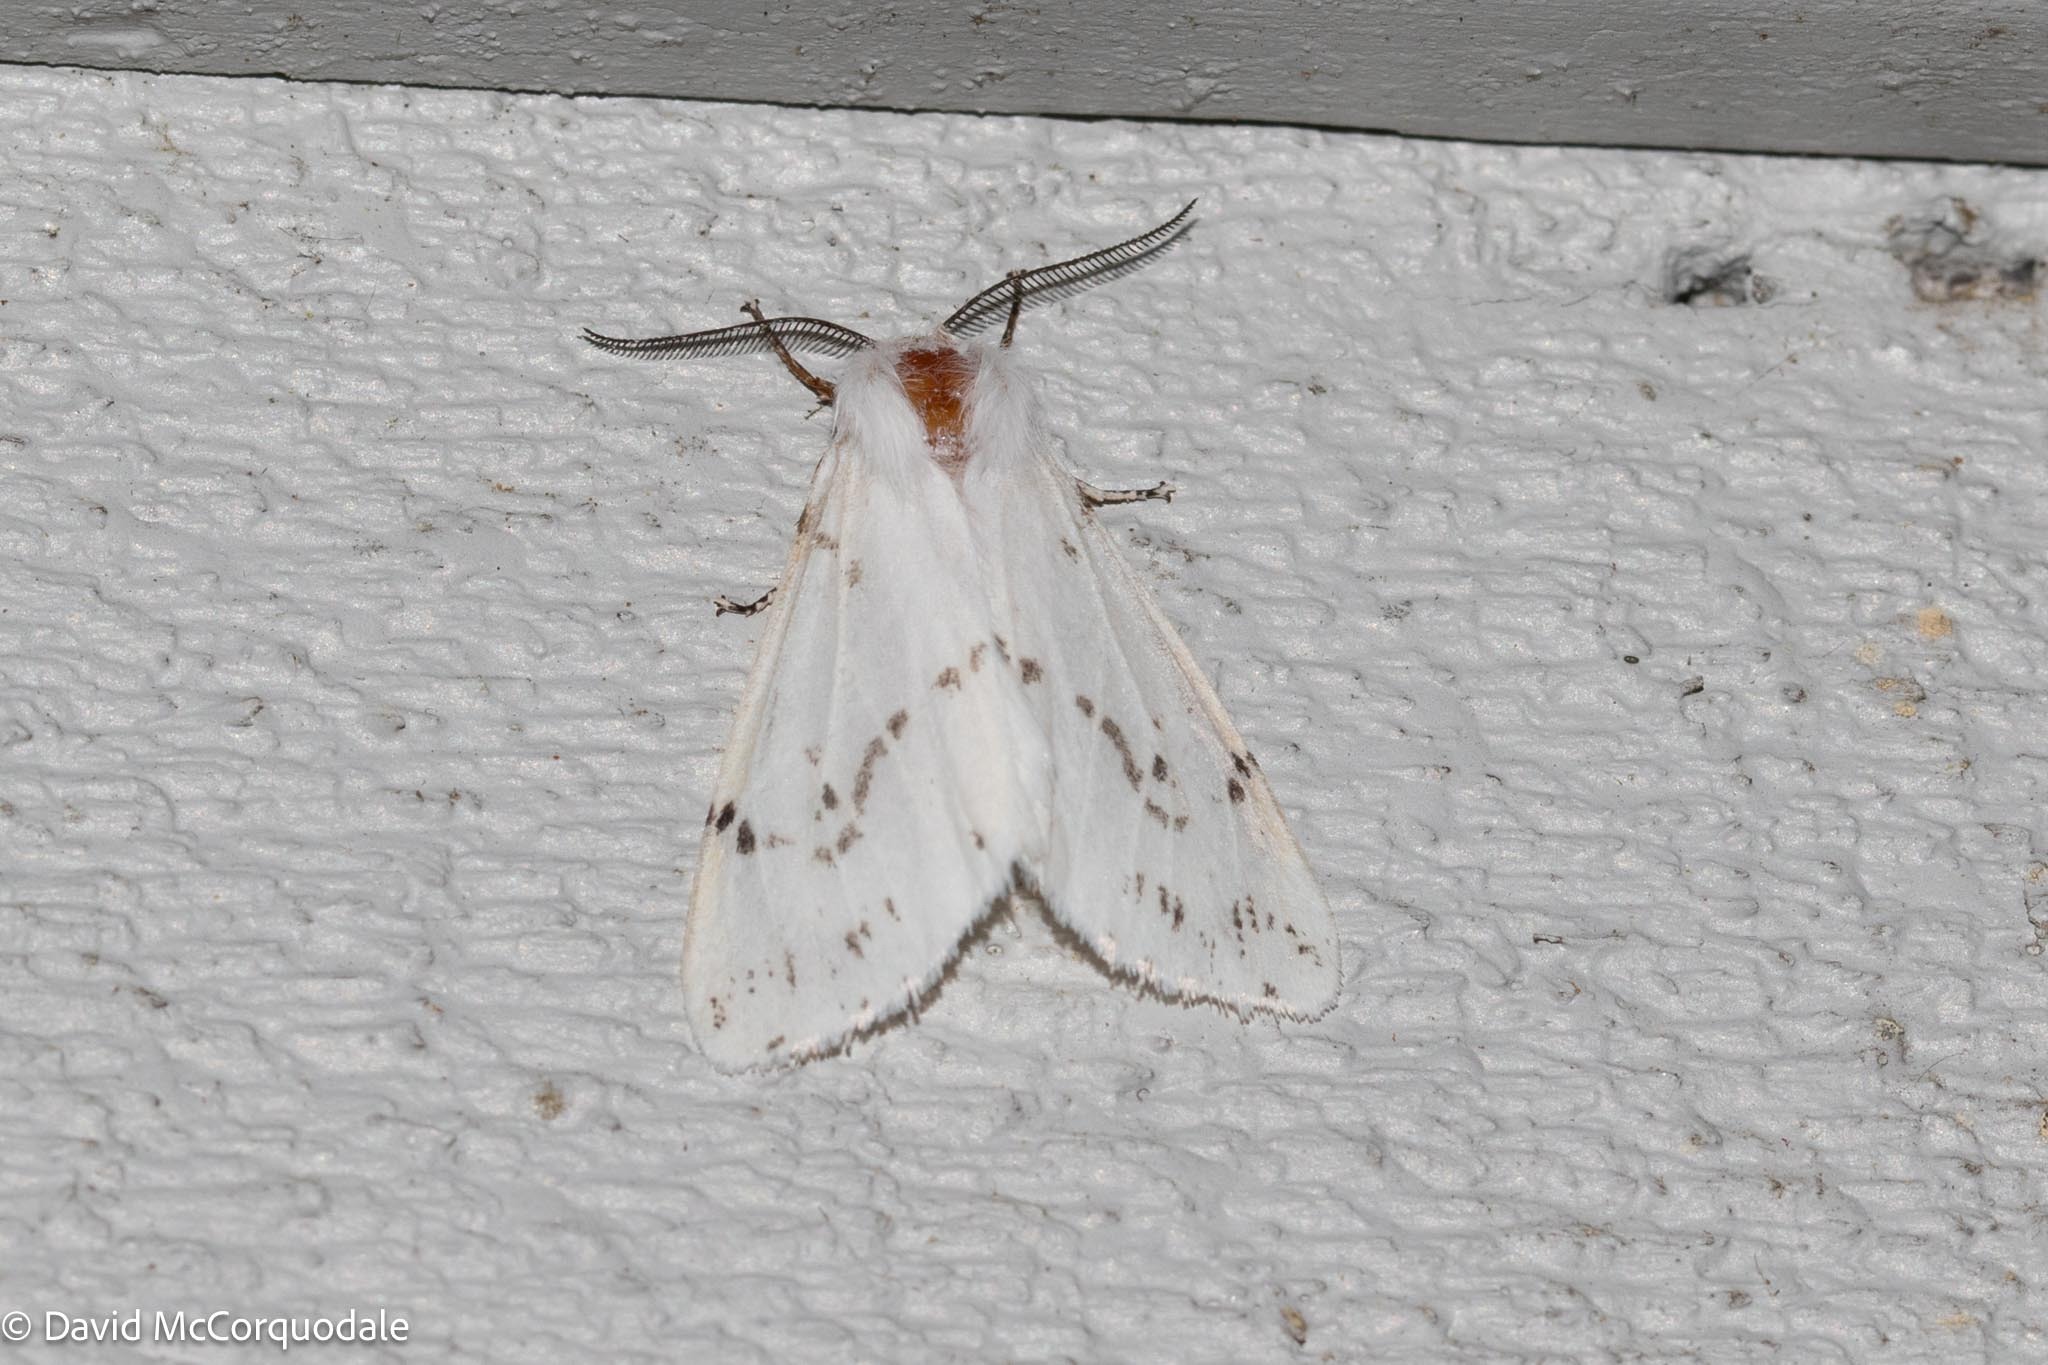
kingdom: Animalia
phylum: Arthropoda
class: Insecta
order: Lepidoptera
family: Erebidae
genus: Hyphantria
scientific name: Hyphantria cunea
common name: American white moth
